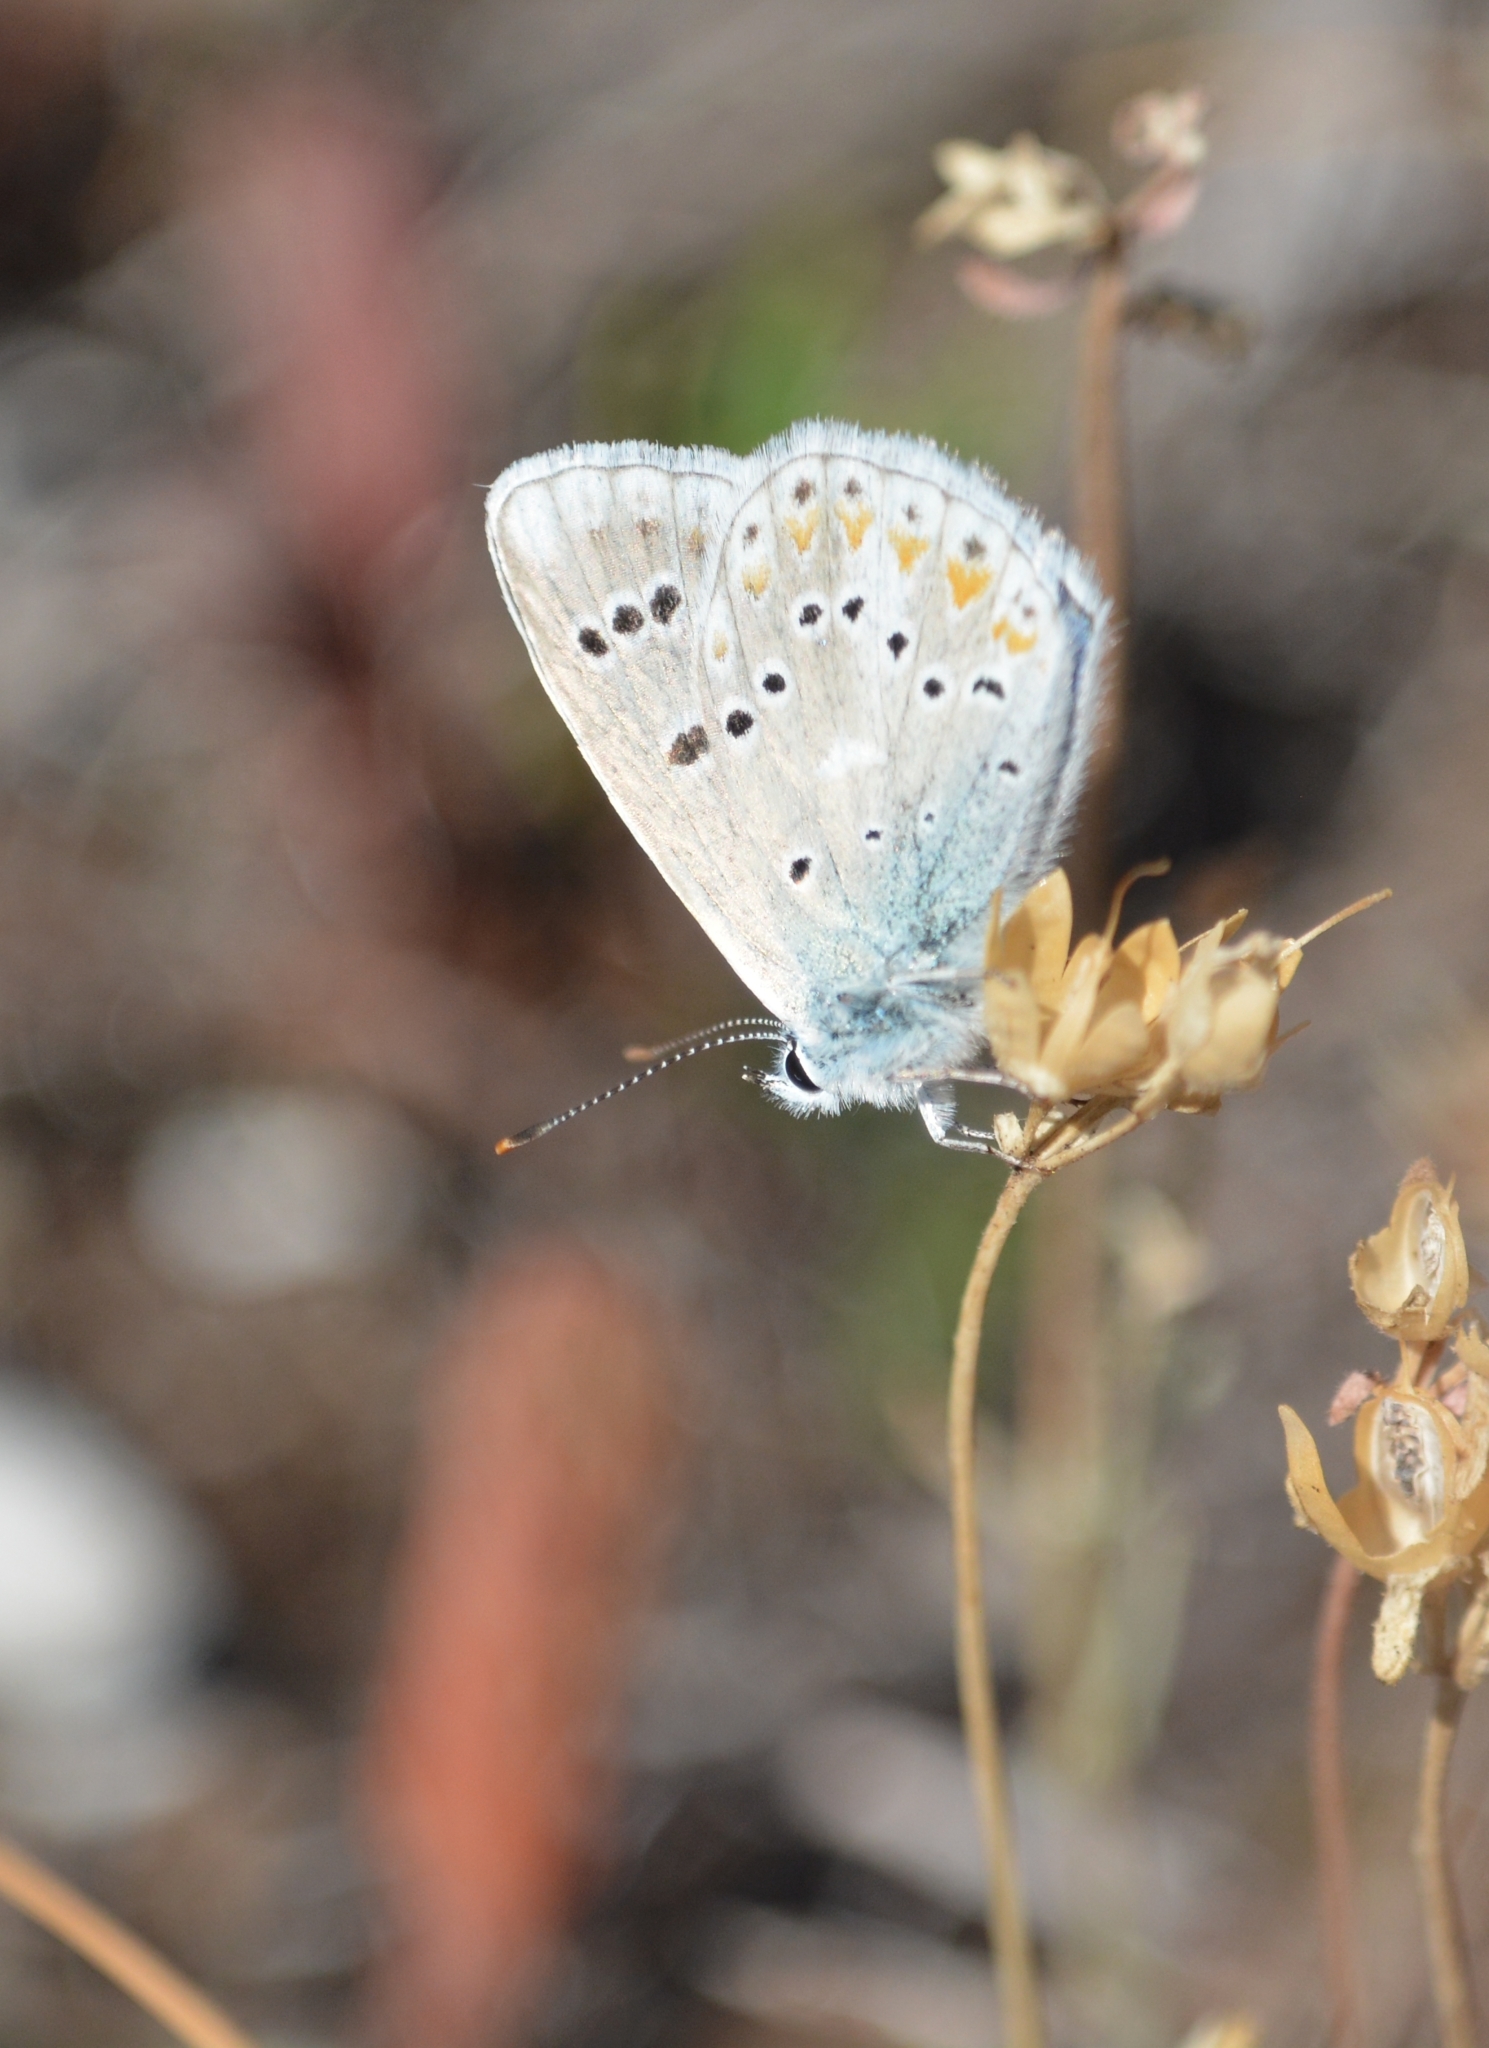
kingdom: Animalia
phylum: Arthropoda
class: Insecta
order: Lepidoptera
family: Lycaenidae
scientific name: Lycaenidae
